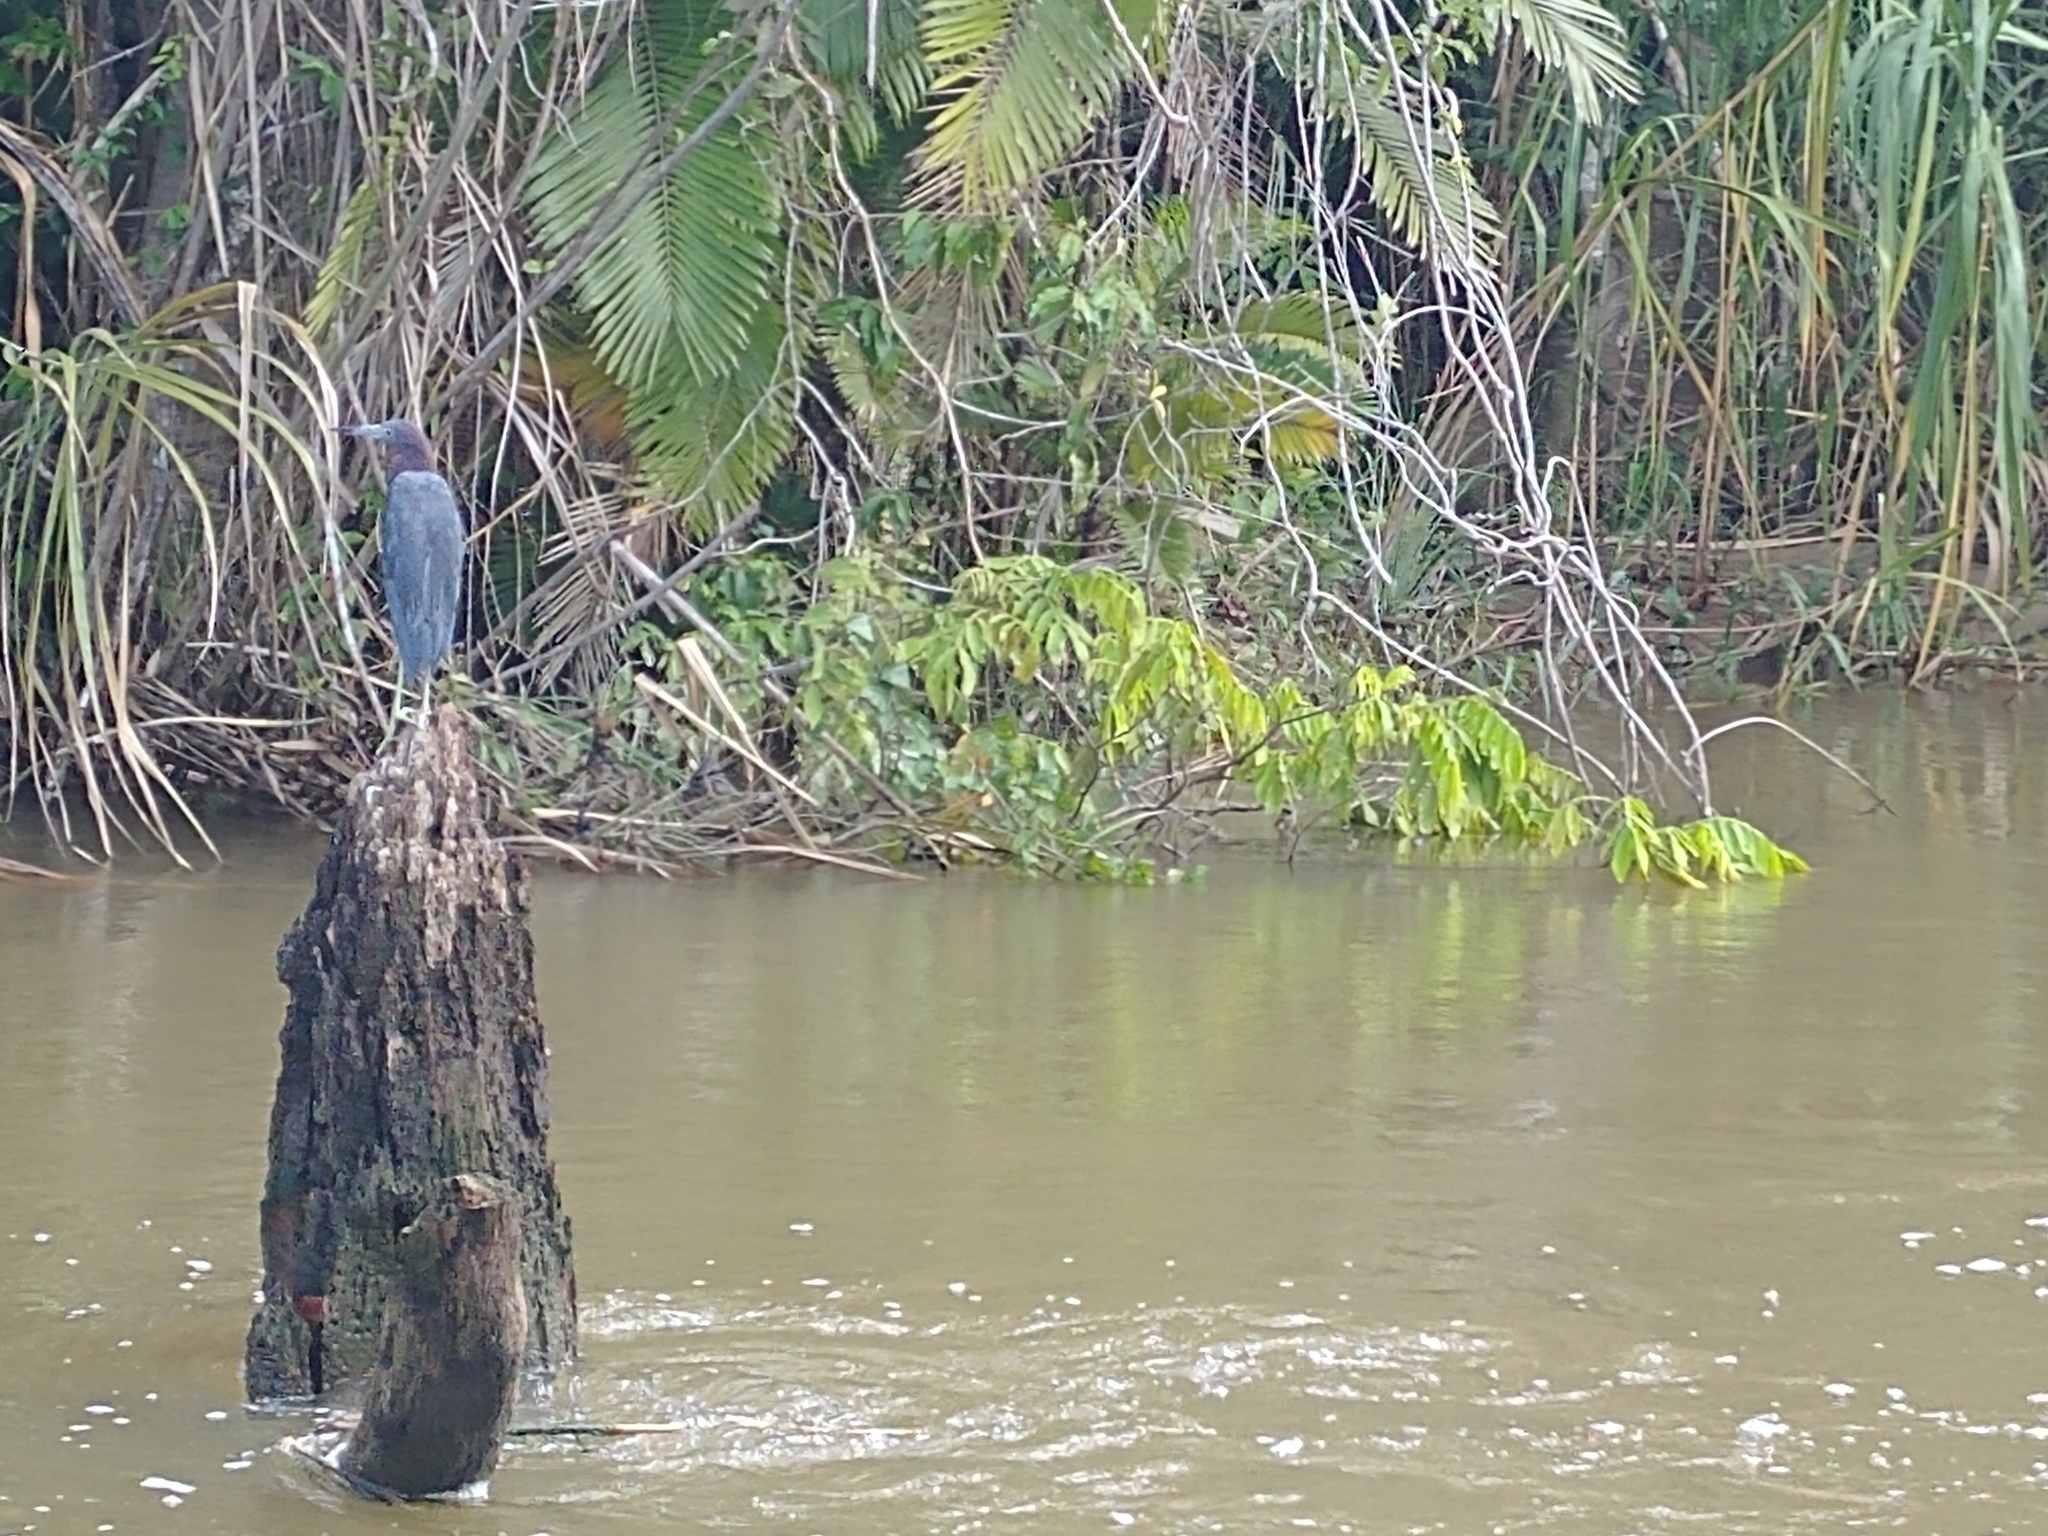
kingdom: Animalia
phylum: Chordata
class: Aves
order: Pelecaniformes
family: Ardeidae
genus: Egretta
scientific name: Egretta caerulea
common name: Little blue heron
